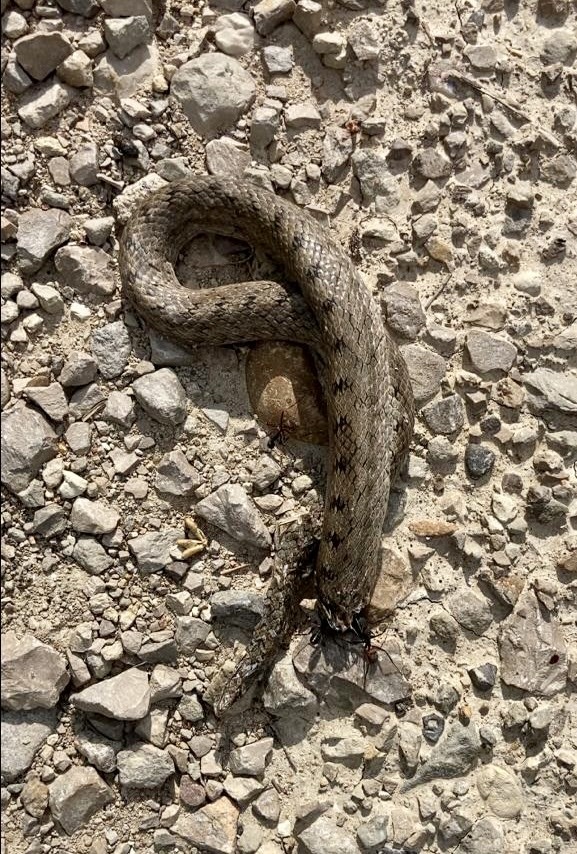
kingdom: Animalia
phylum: Chordata
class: Squamata
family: Colubridae
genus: Coronella
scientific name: Coronella girondica
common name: Southern smooth snake
